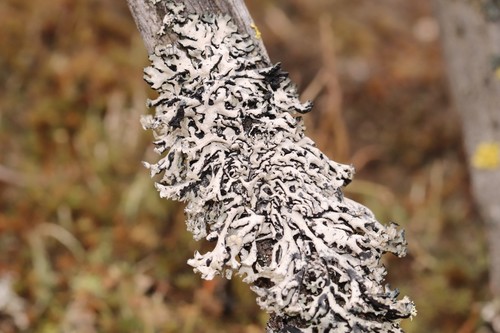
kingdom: Fungi
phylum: Ascomycota
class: Lecanoromycetes
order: Lecanorales
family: Parmeliaceae
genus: Hypogymnia
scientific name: Hypogymnia physodes
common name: Dark crottle
